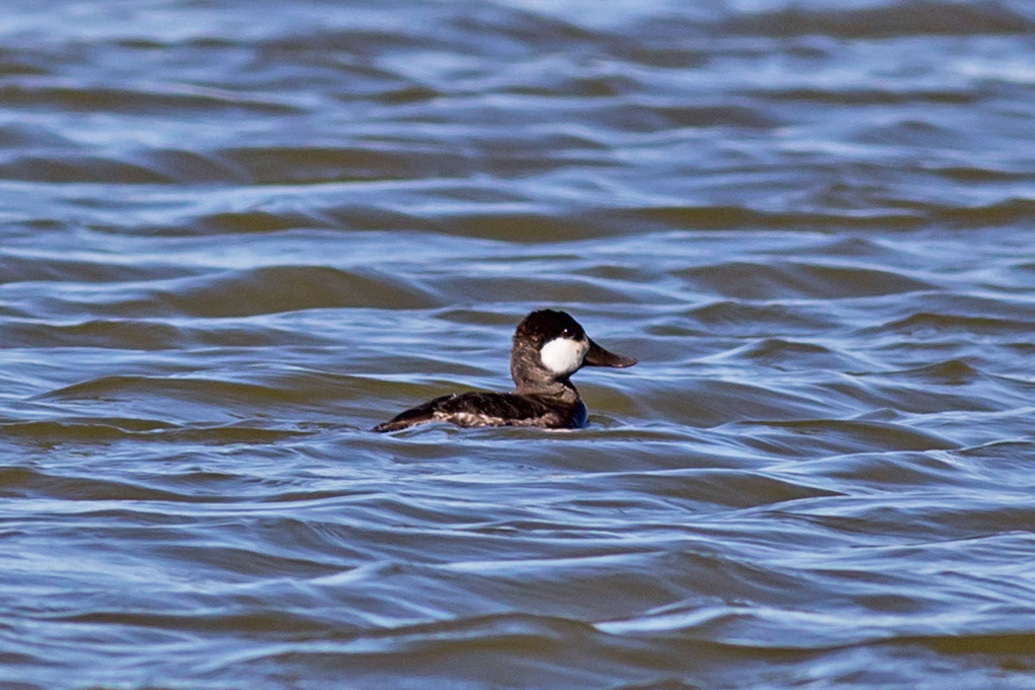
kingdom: Animalia
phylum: Chordata
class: Aves
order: Anseriformes
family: Anatidae
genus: Oxyura
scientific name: Oxyura jamaicensis
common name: Ruddy duck
